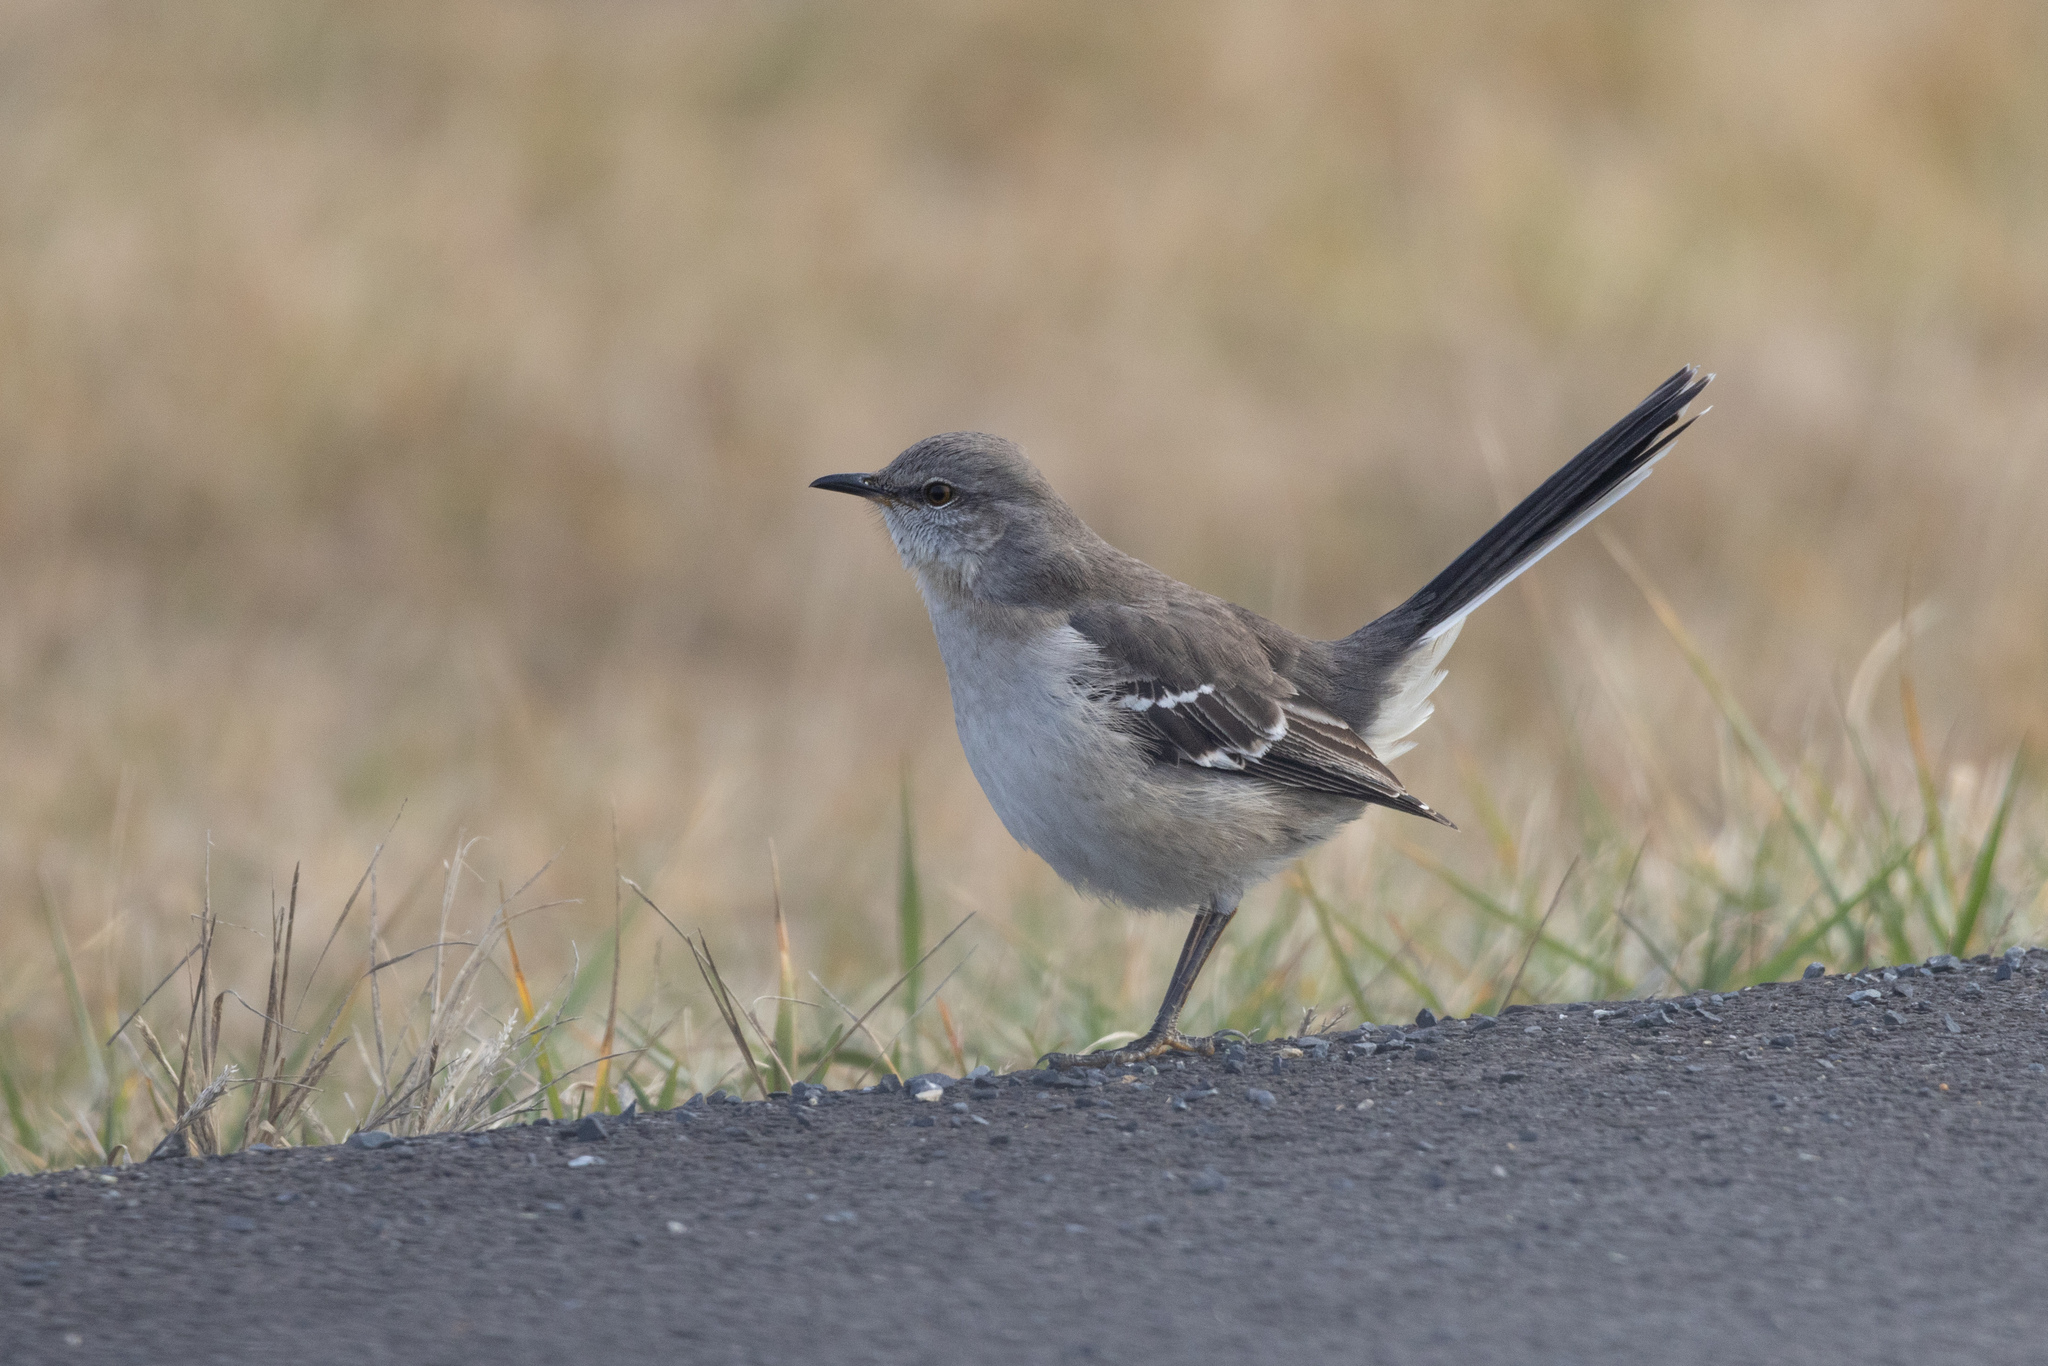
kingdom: Animalia
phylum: Chordata
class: Aves
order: Passeriformes
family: Mimidae
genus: Mimus
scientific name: Mimus polyglottos
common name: Northern mockingbird
